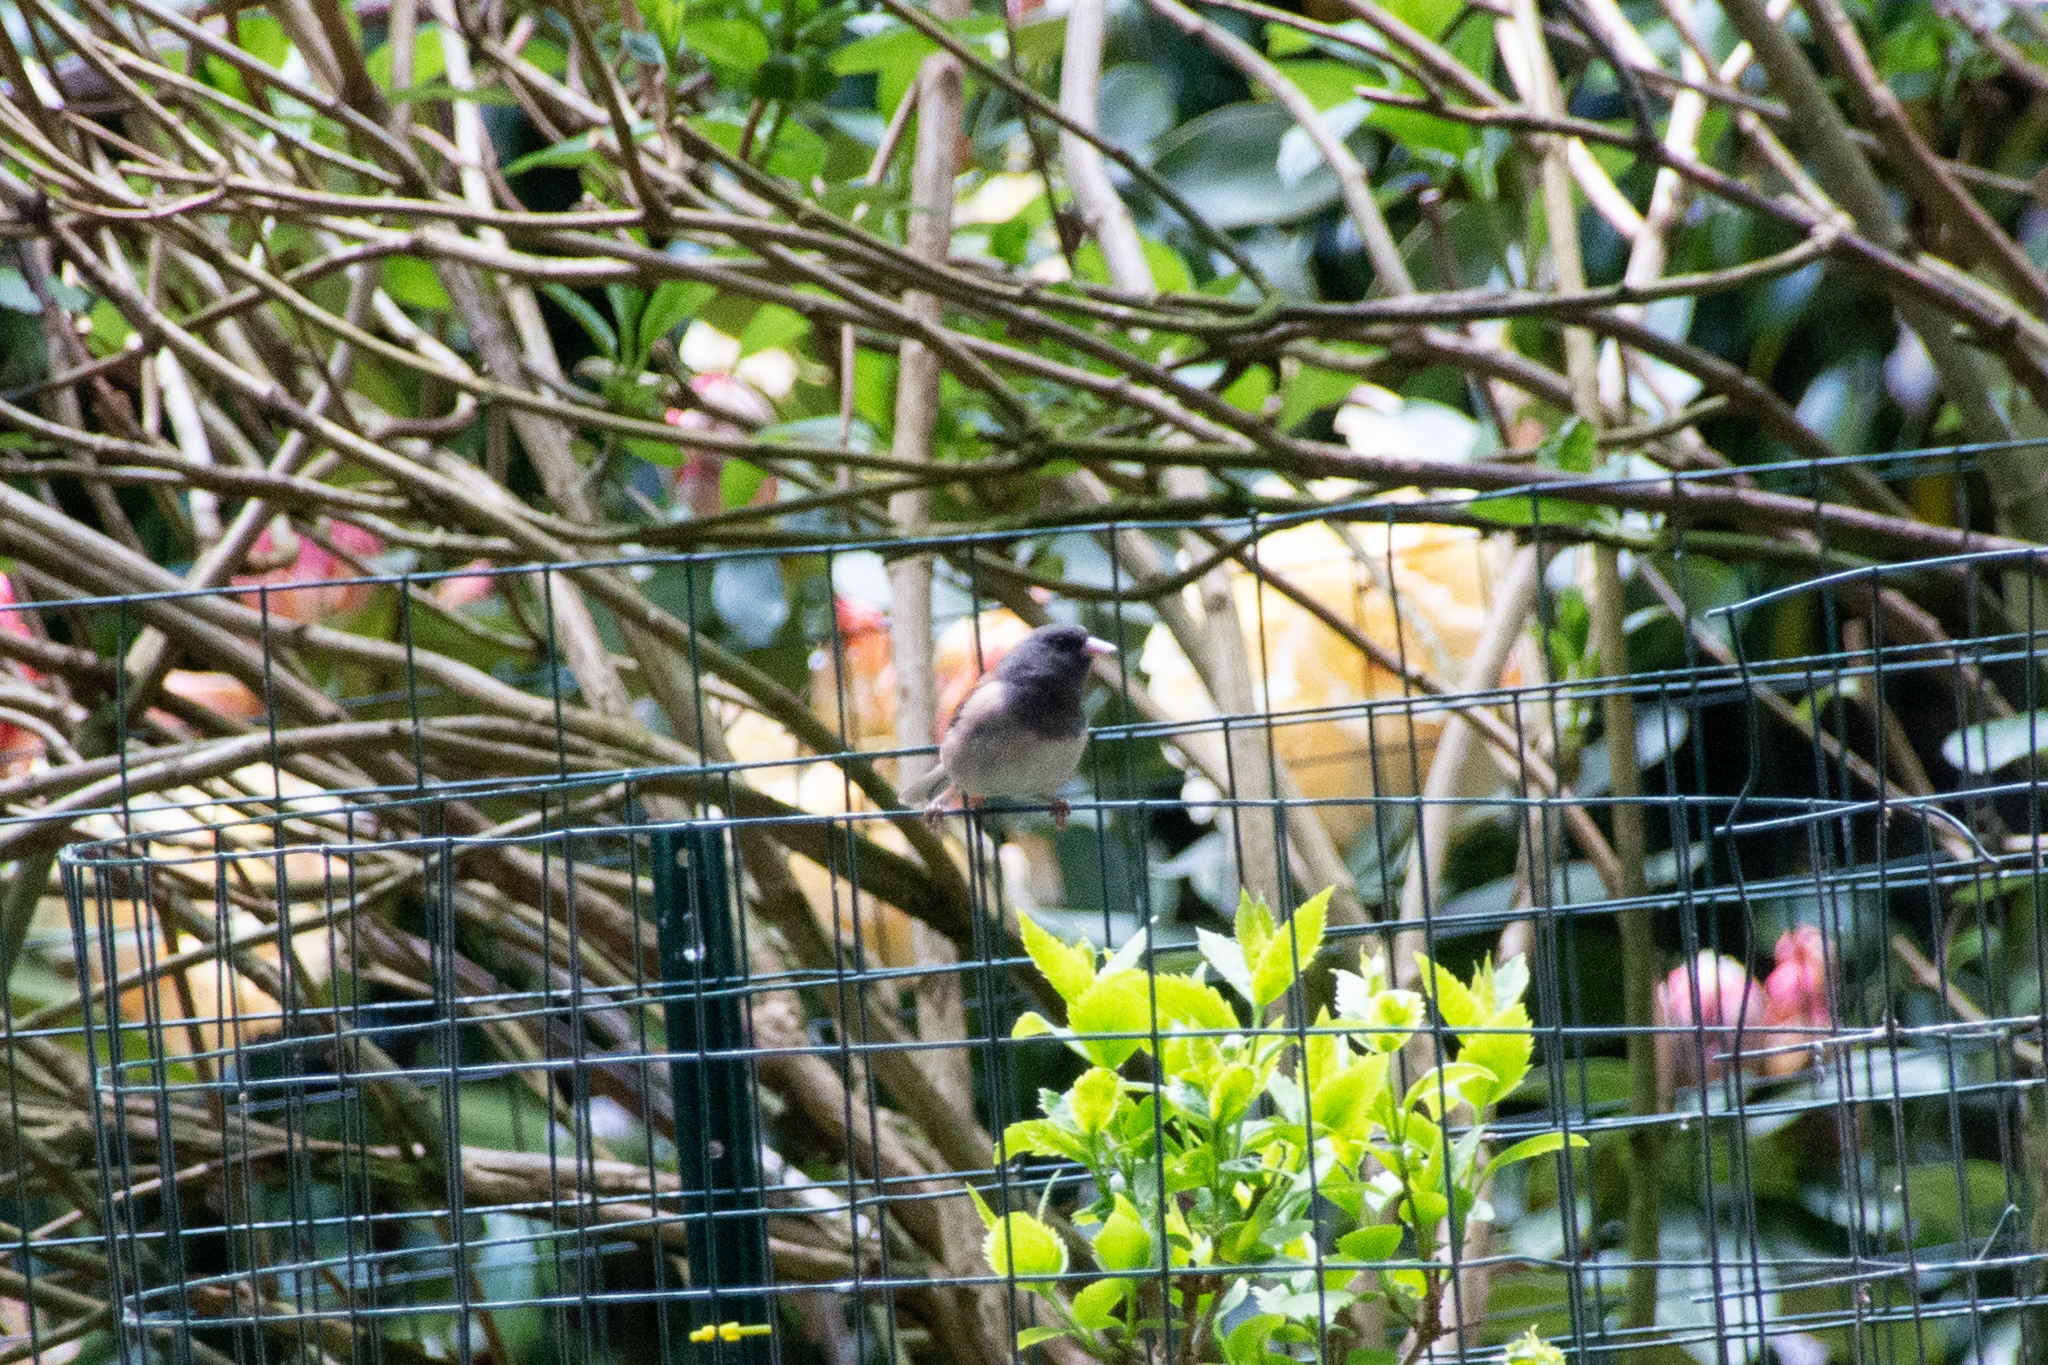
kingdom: Animalia
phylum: Chordata
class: Aves
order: Passeriformes
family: Passerellidae
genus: Junco
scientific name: Junco hyemalis
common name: Dark-eyed junco
